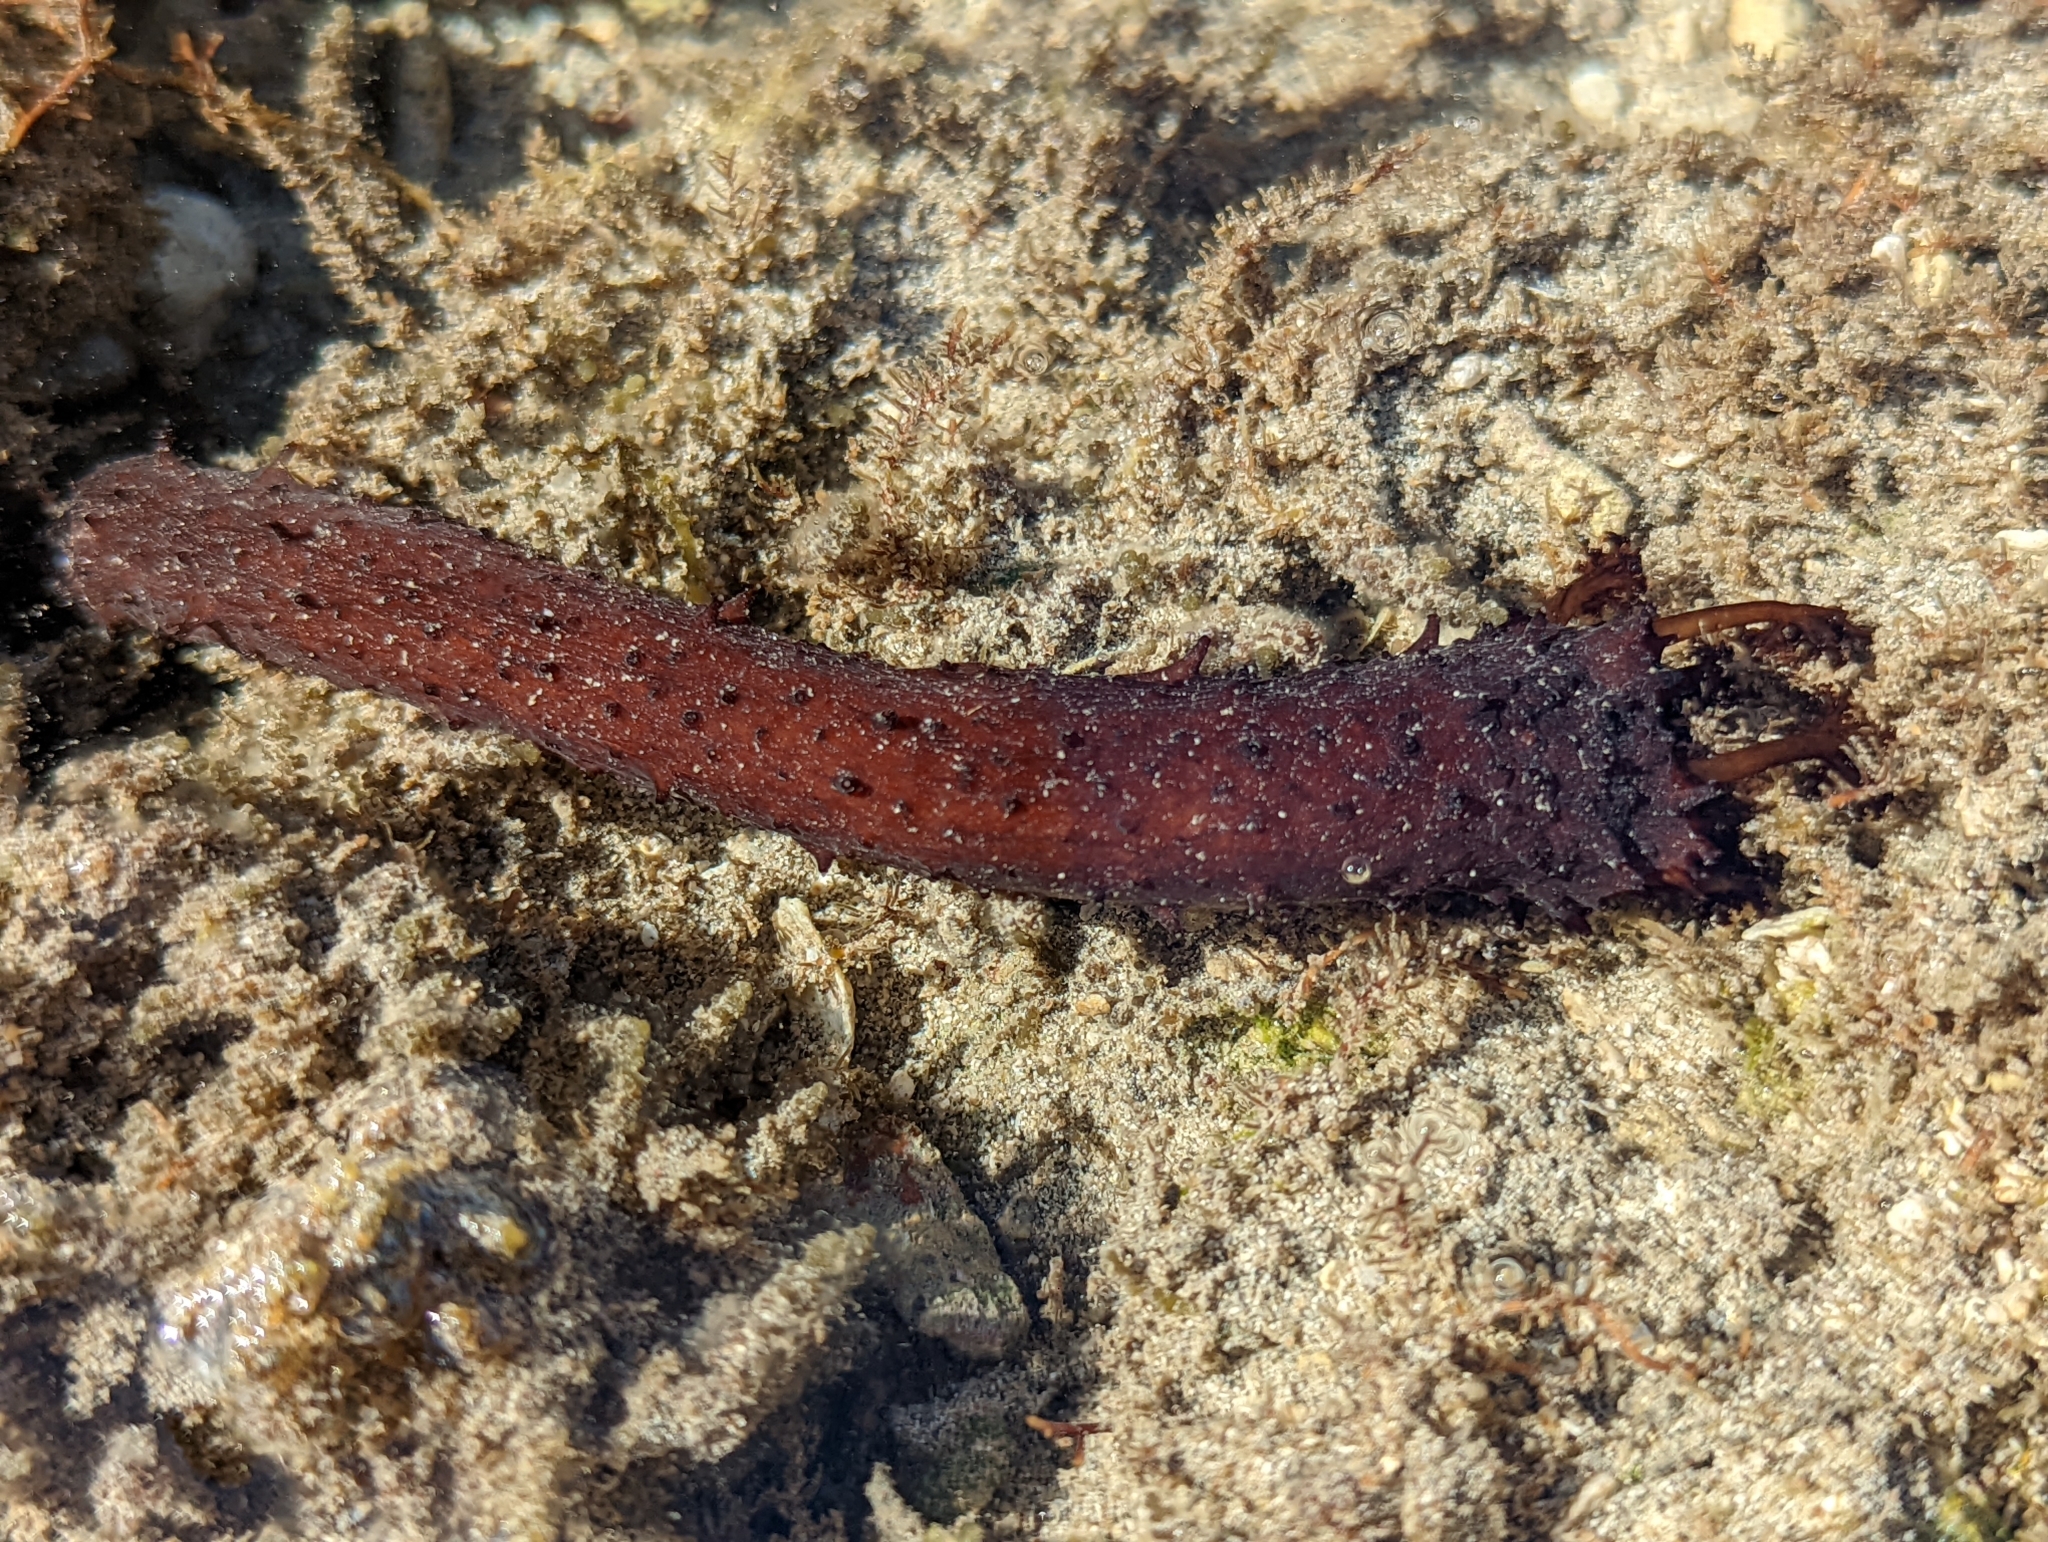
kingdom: Animalia
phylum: Echinodermata
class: Holothuroidea
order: Holothuriida
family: Holothuriidae
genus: Holothuria
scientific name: Holothuria leucospilota
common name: White thread fish
